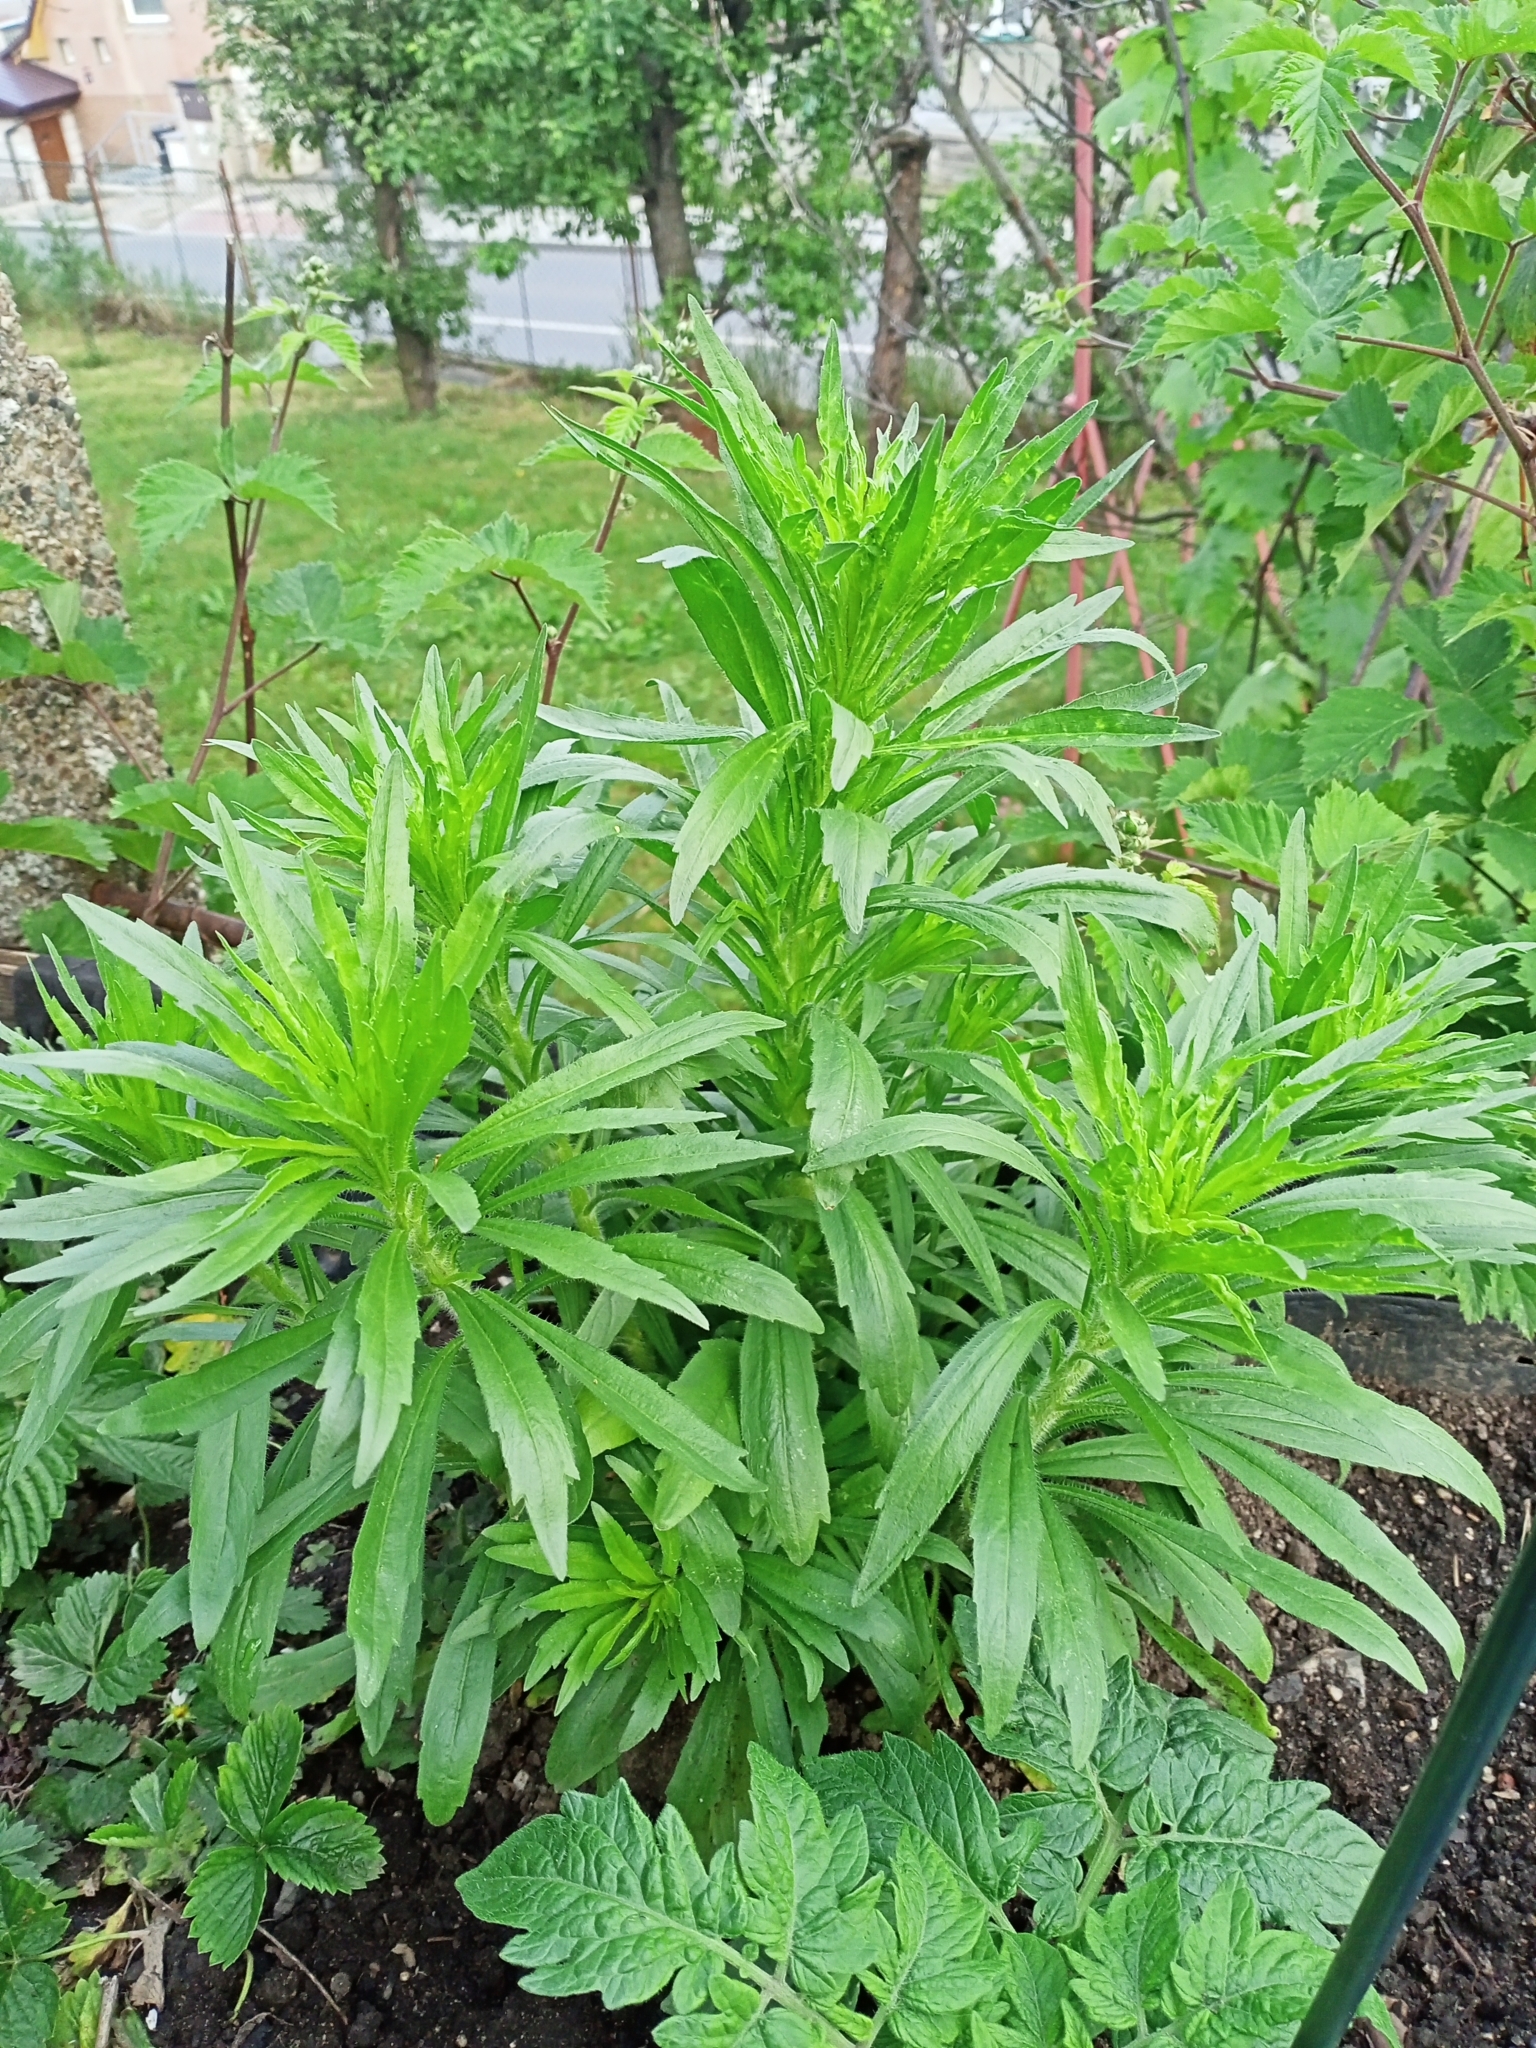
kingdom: Plantae
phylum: Tracheophyta
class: Magnoliopsida
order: Asterales
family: Asteraceae
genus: Erigeron
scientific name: Erigeron canadensis
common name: Canadian fleabane
